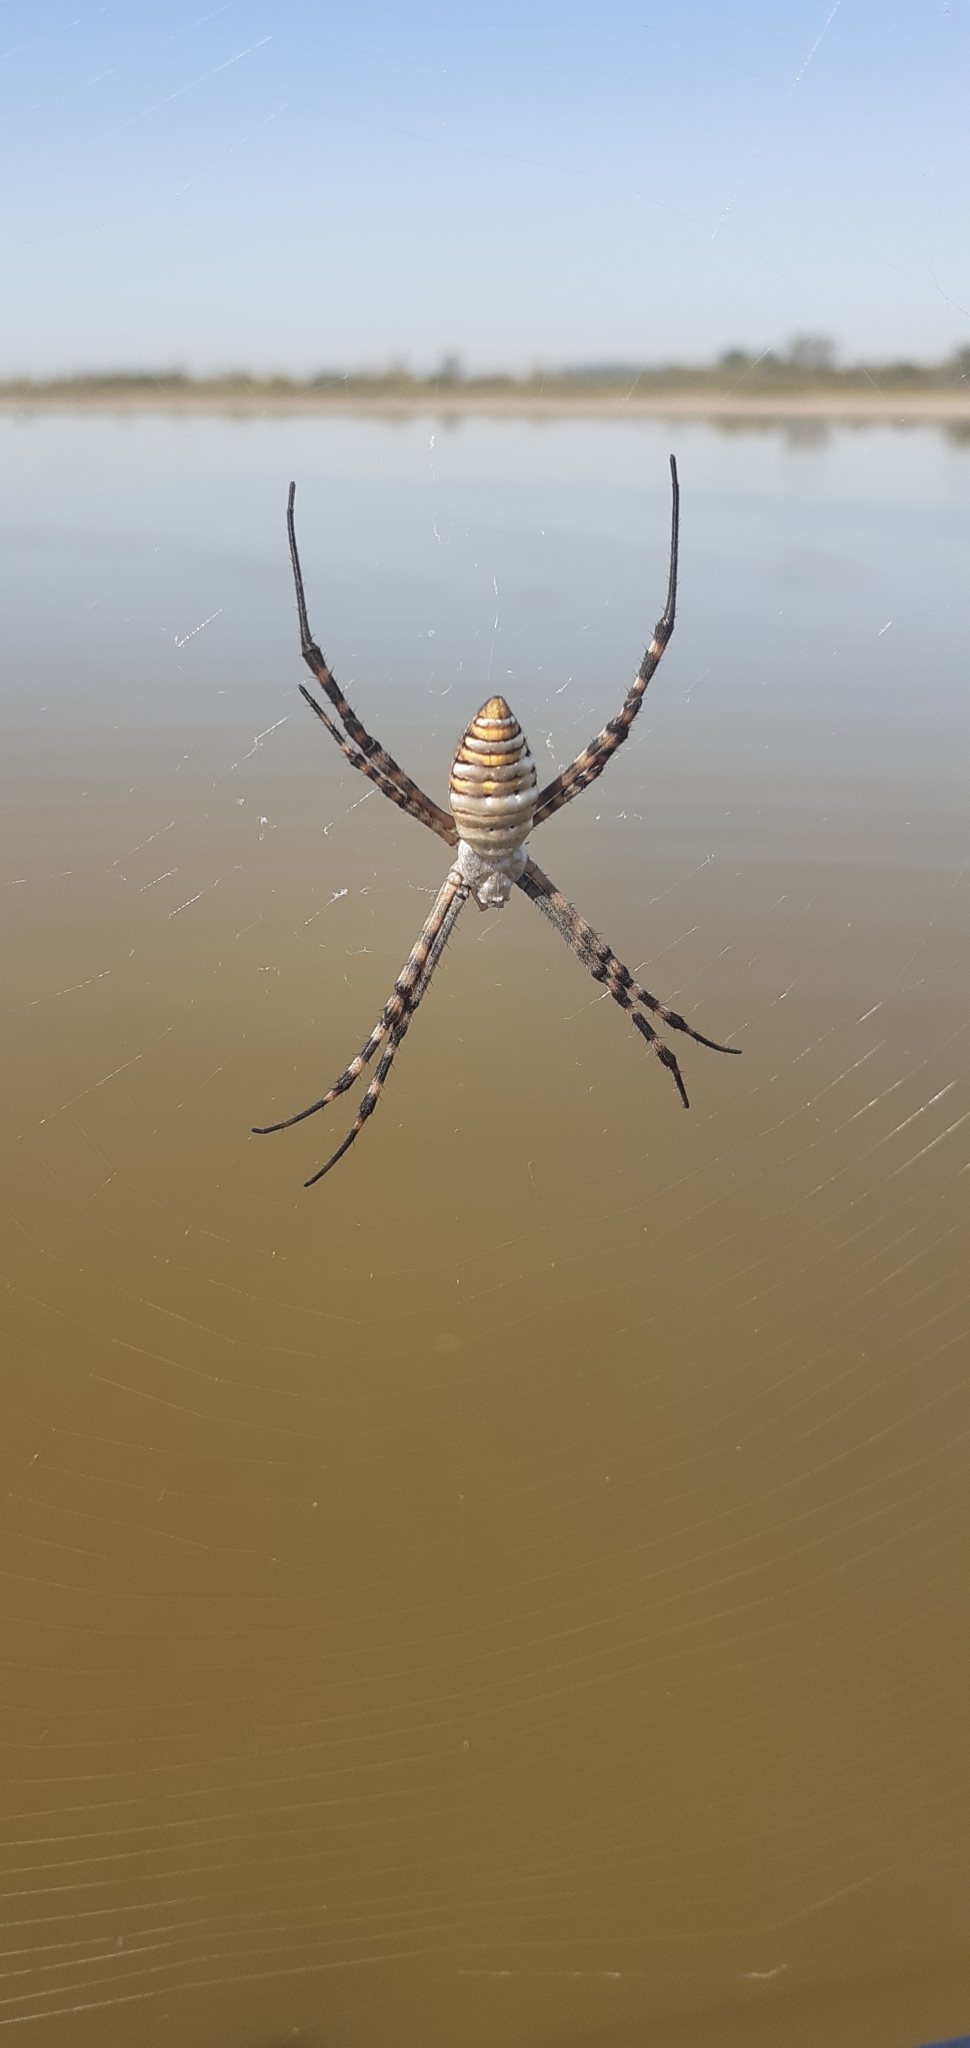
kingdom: Animalia
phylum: Arthropoda
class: Arachnida
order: Araneae
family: Araneidae
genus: Argiope
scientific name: Argiope trifasciata
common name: Banded garden spider
